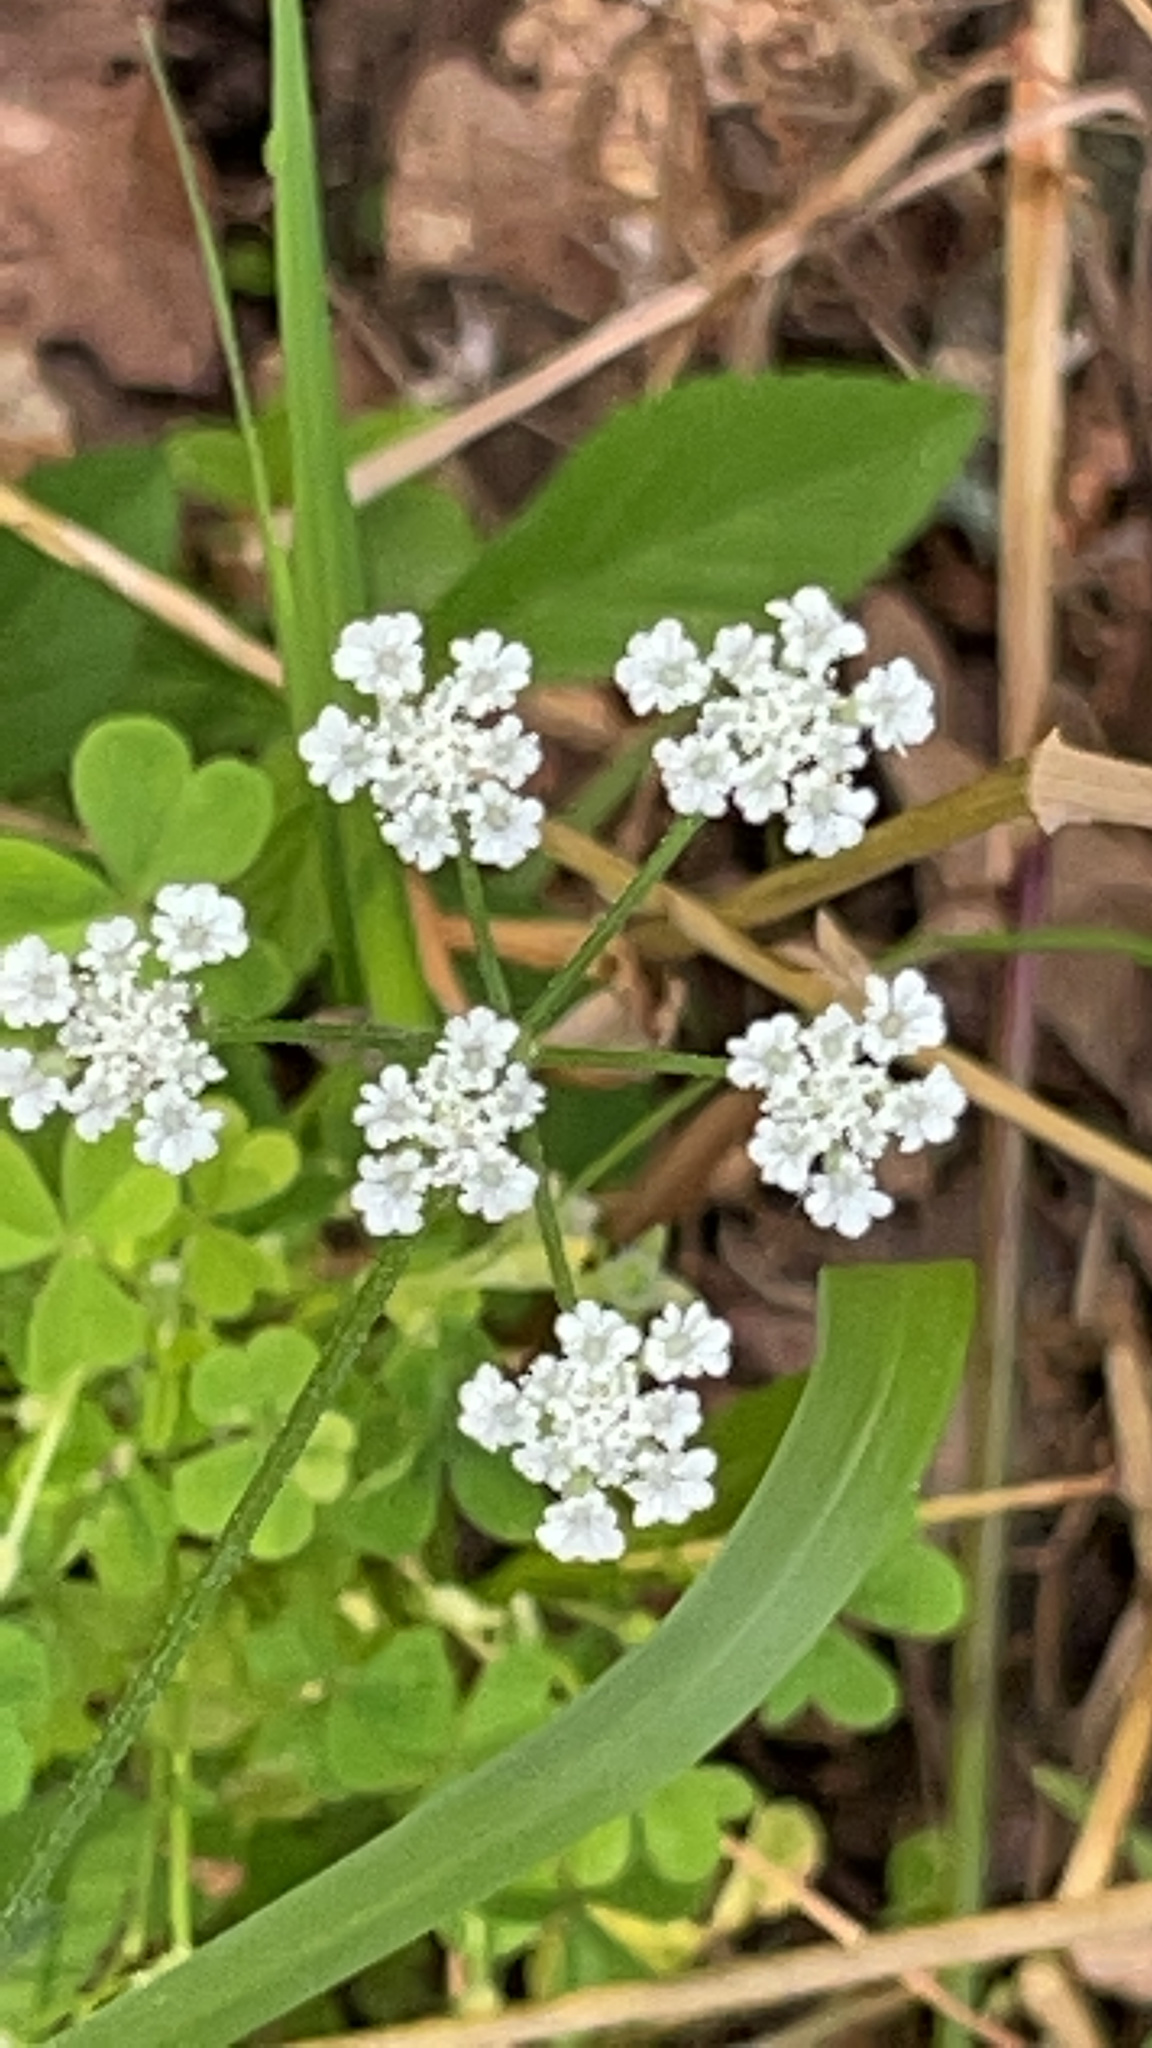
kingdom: Plantae
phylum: Tracheophyta
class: Magnoliopsida
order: Apiales
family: Apiaceae
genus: Torilis
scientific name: Torilis arvensis
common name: Spreading hedge-parsley
